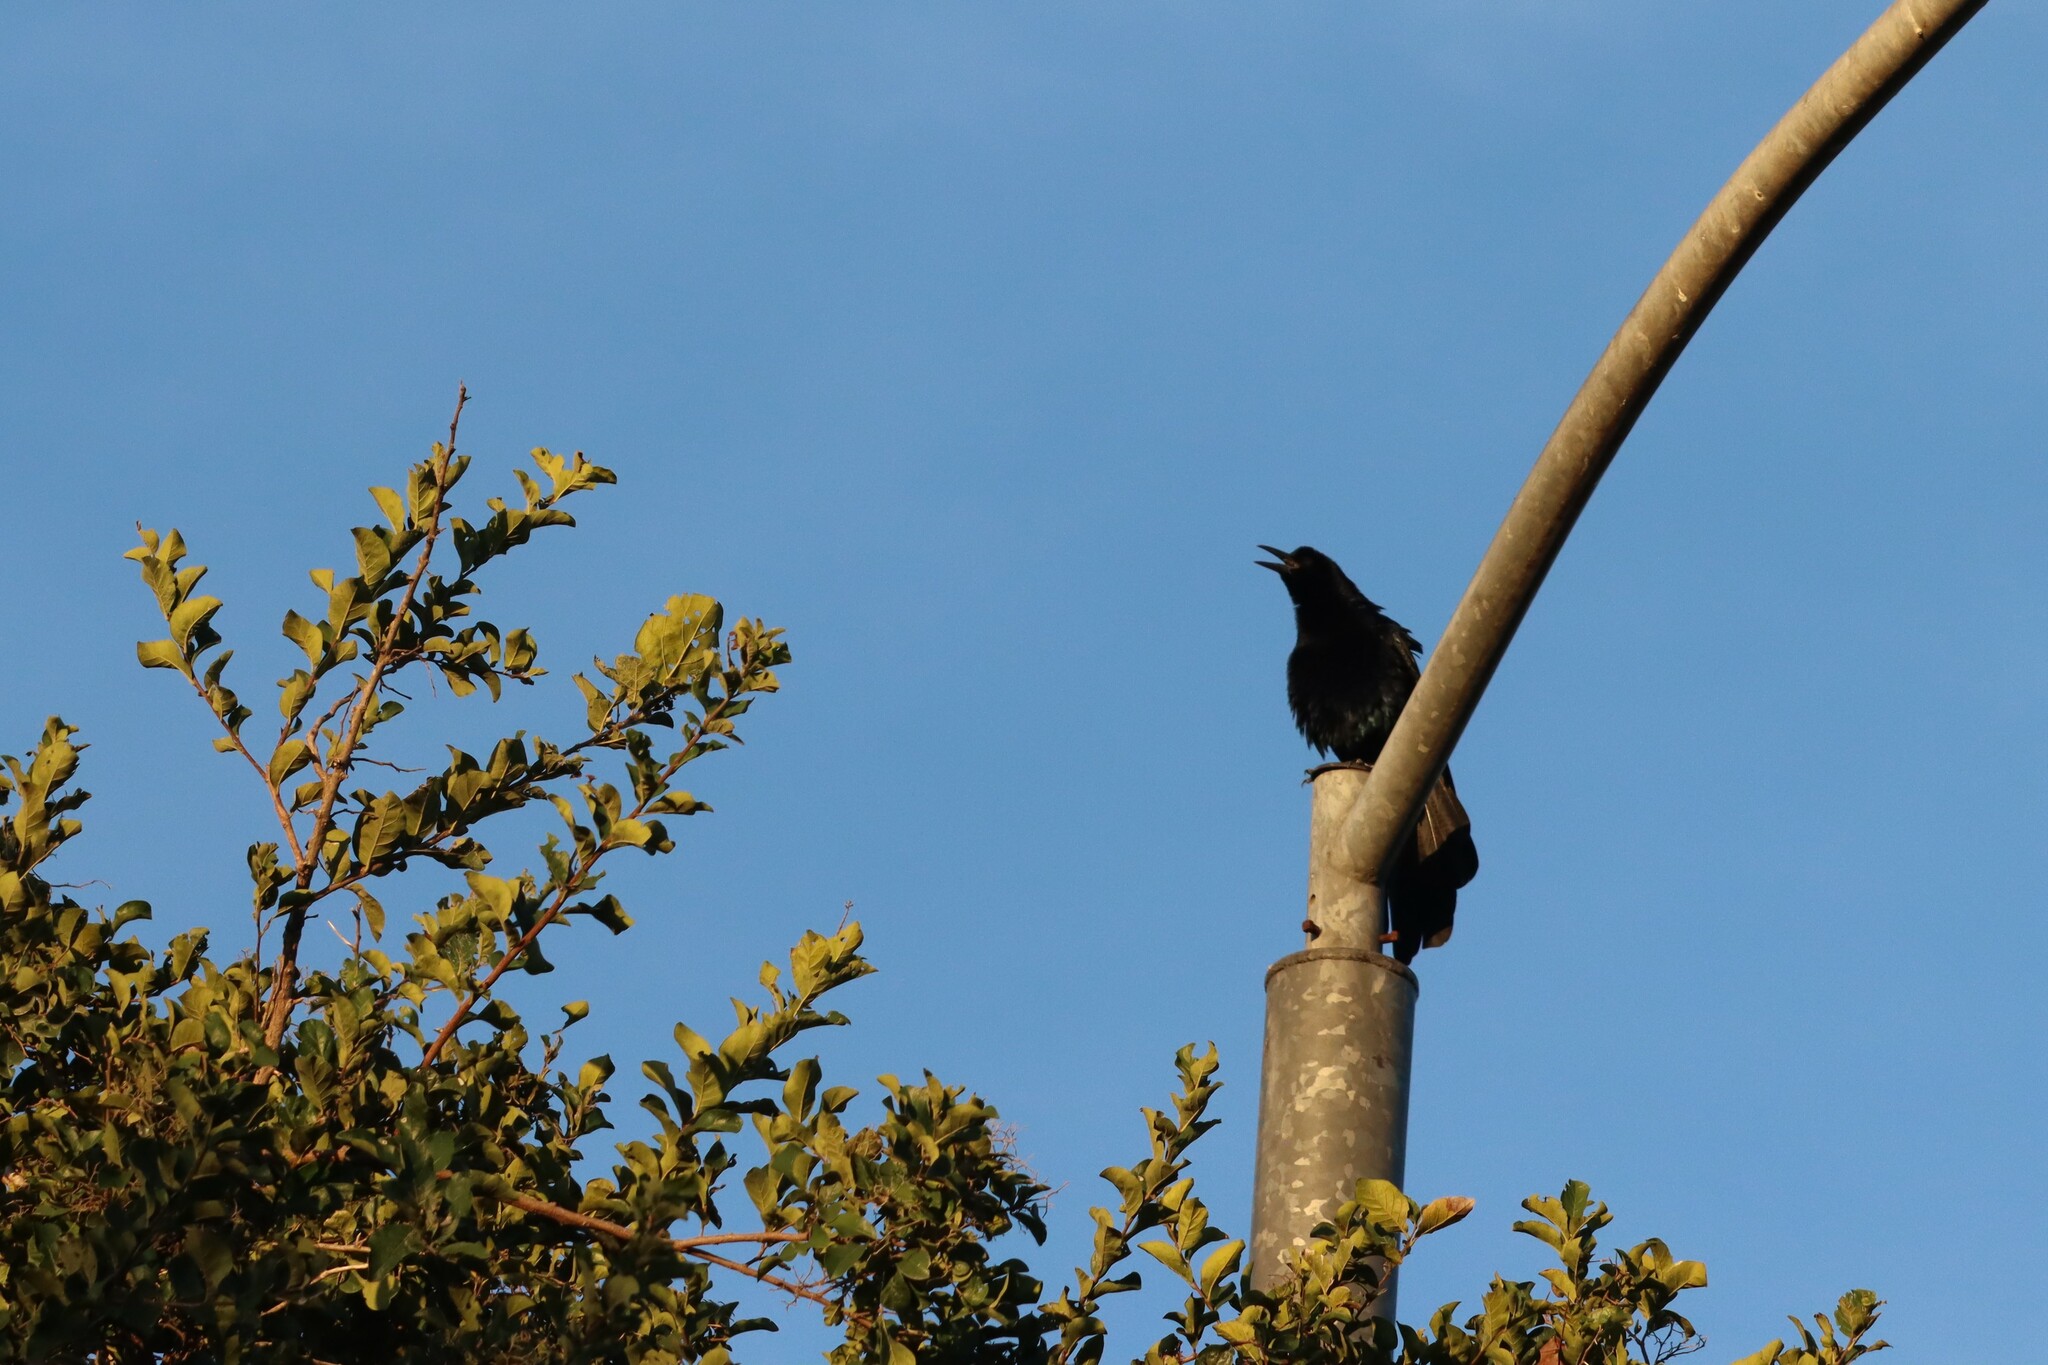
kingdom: Animalia
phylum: Chordata
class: Aves
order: Passeriformes
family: Icteridae
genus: Quiscalus
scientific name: Quiscalus mexicanus
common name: Great-tailed grackle
